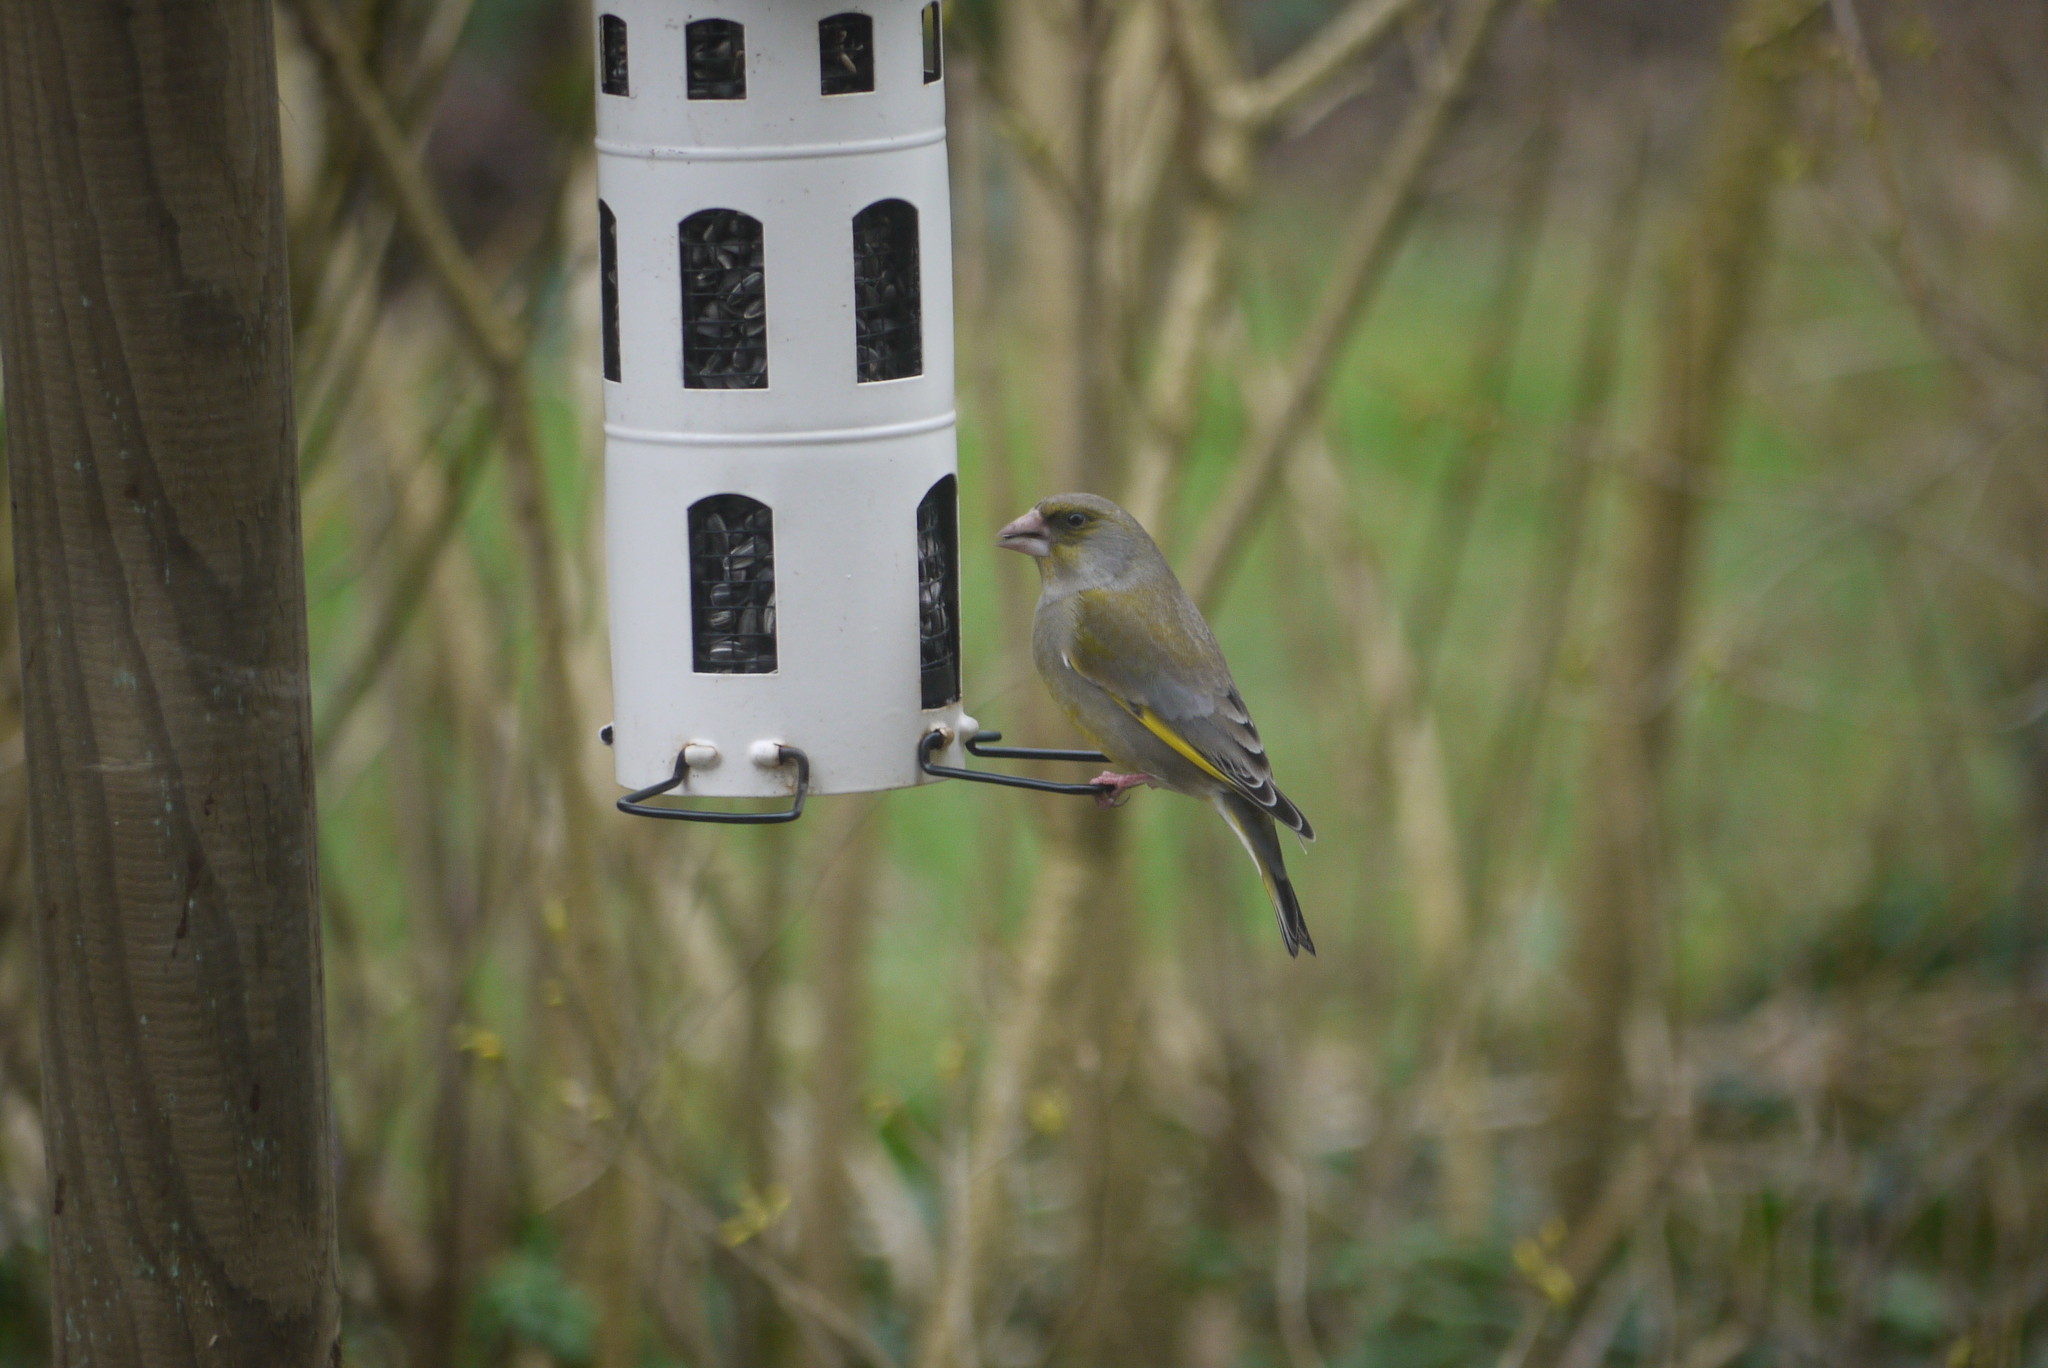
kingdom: Plantae
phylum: Tracheophyta
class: Liliopsida
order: Poales
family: Poaceae
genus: Chloris
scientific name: Chloris chloris
